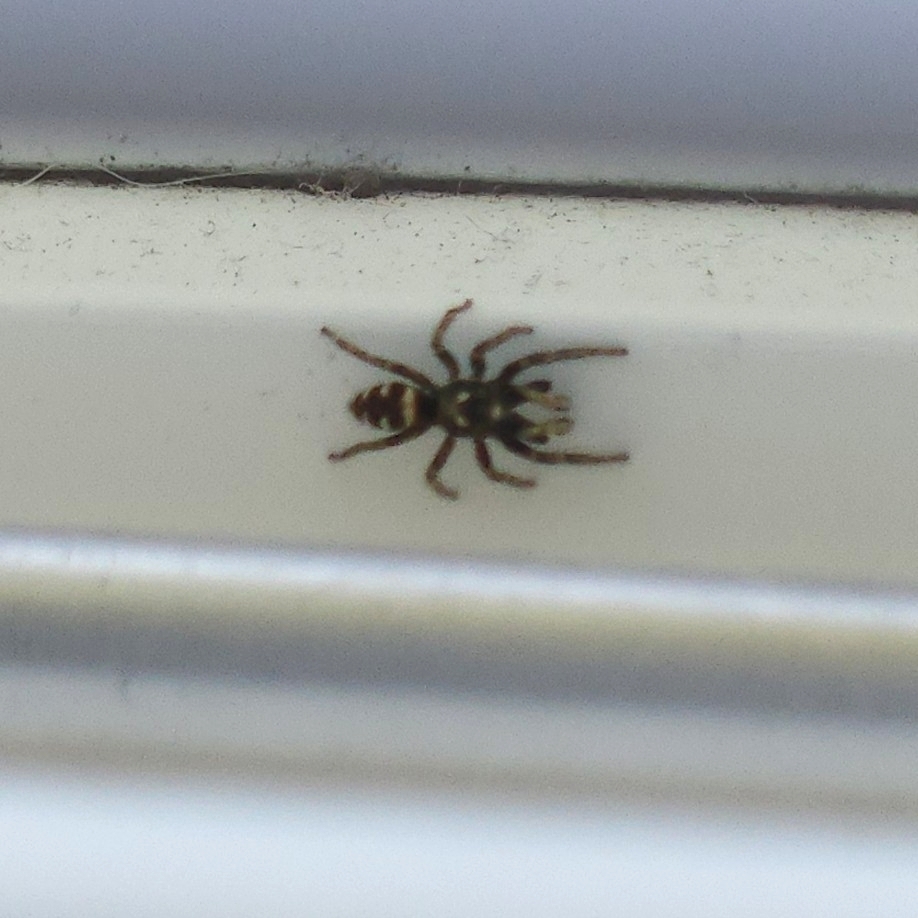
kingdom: Animalia
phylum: Arthropoda
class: Arachnida
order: Araneae
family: Salticidae
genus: Salticus
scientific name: Salticus scenicus
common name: Zebra jumper
